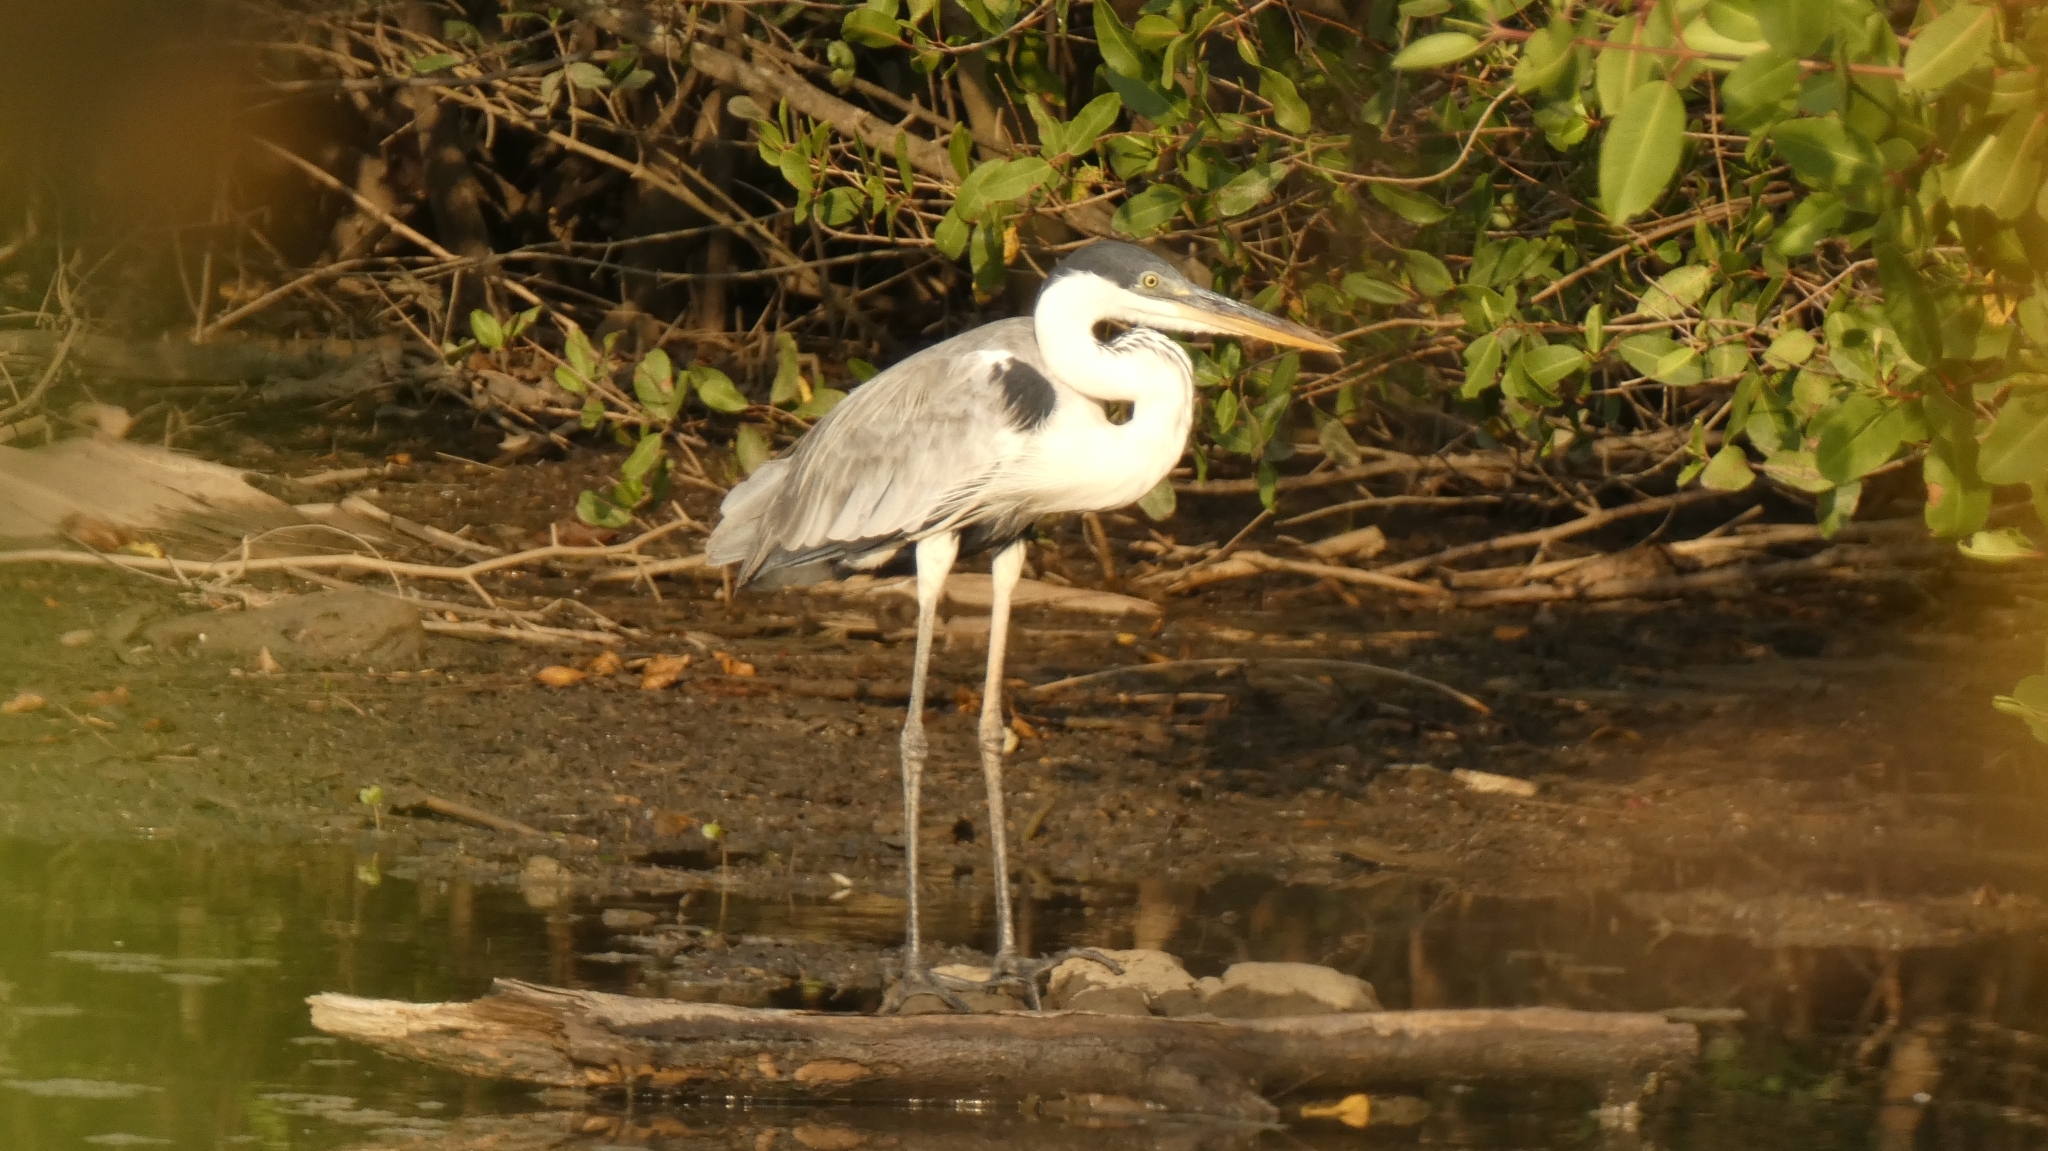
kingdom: Animalia
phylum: Chordata
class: Aves
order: Pelecaniformes
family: Ardeidae
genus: Ardea
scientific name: Ardea cocoi
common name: Cocoi heron
